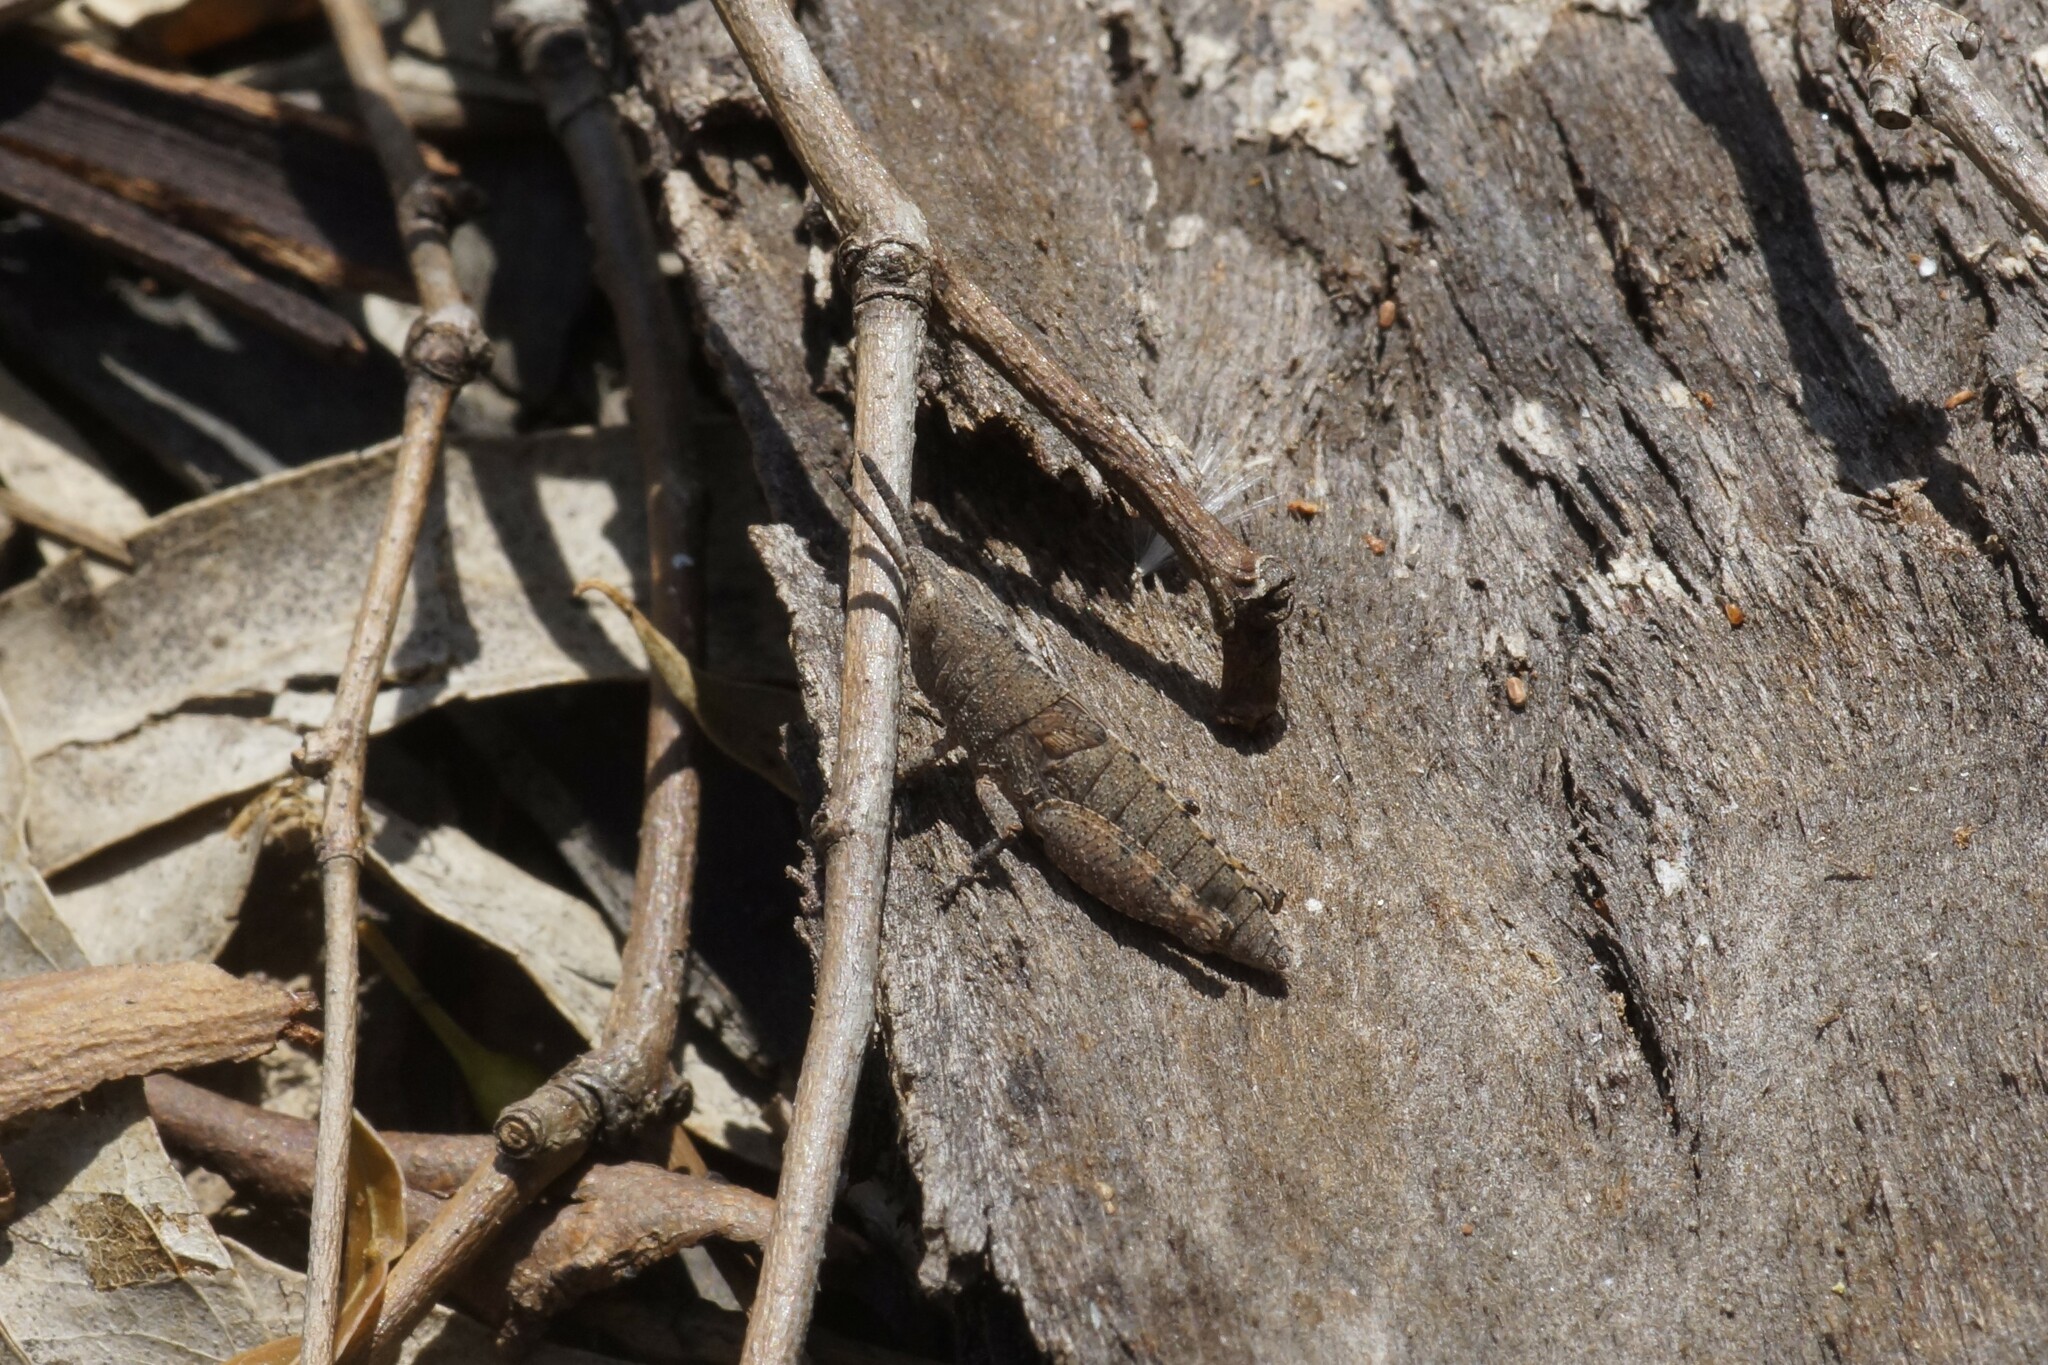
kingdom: Animalia
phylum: Arthropoda
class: Insecta
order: Orthoptera
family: Acrididae
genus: Goniaea
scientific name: Goniaea opomaloides
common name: Mimetic gumleaf grasshopper
